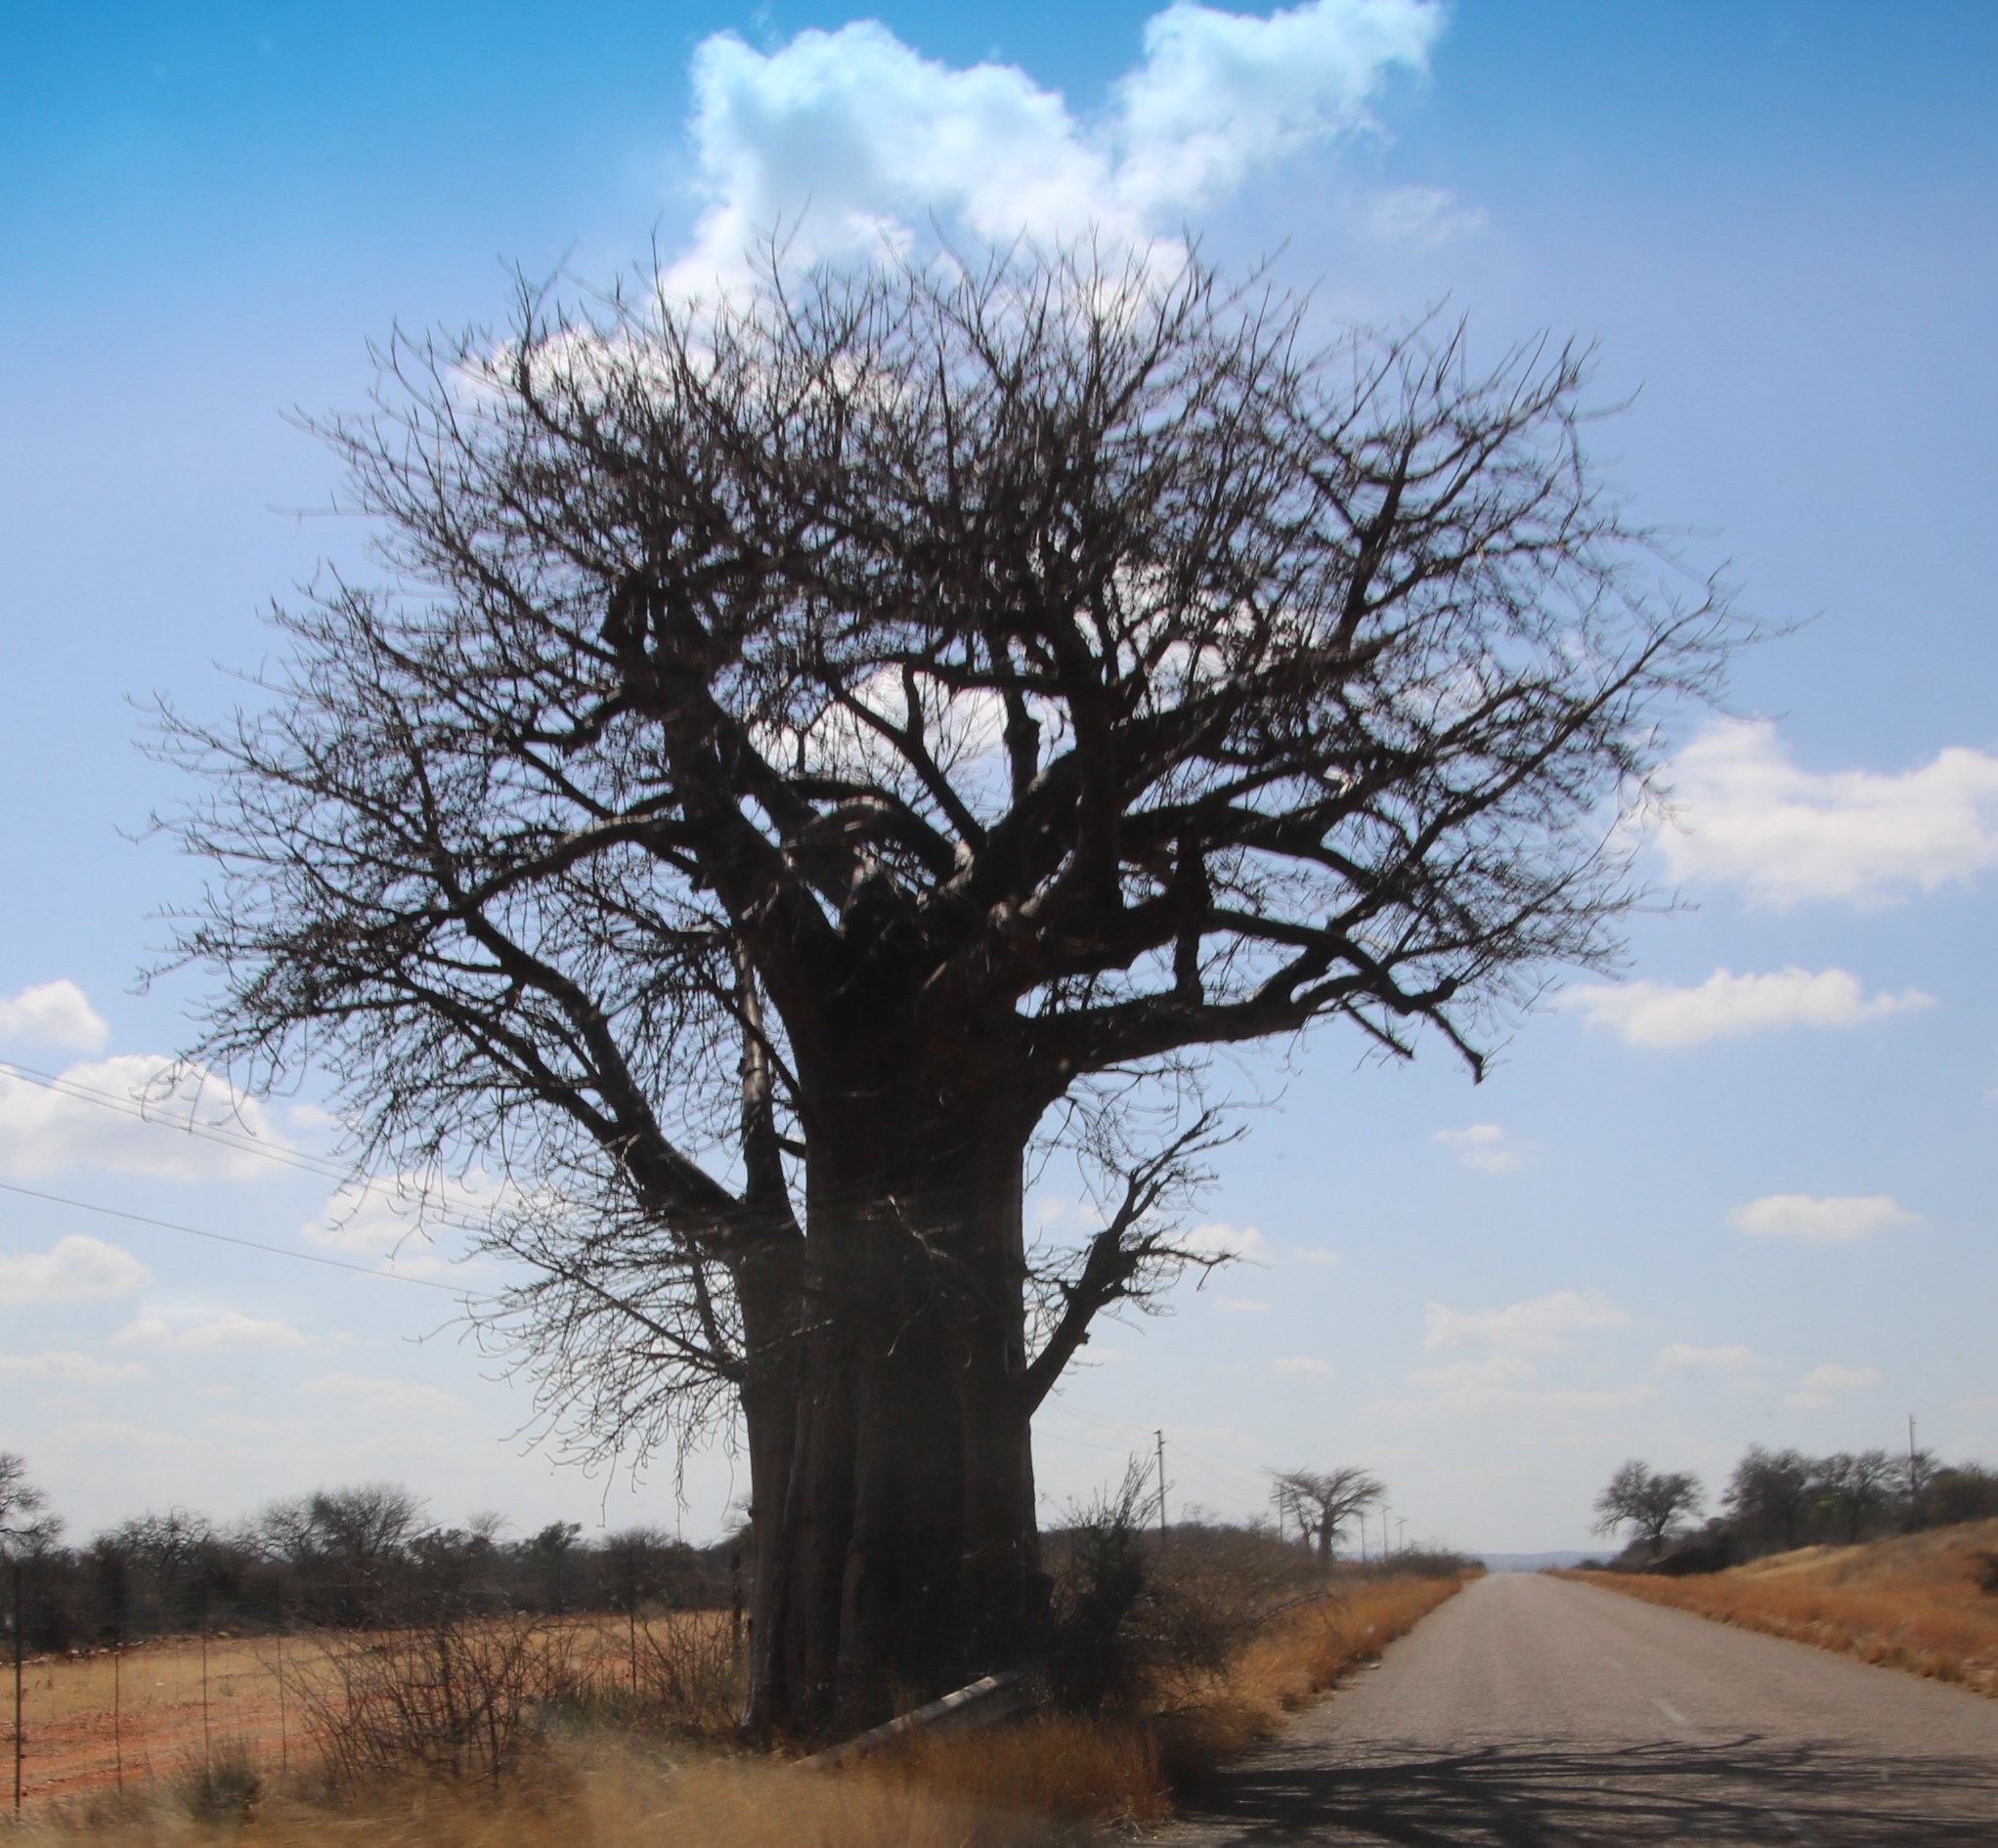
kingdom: Plantae
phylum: Tracheophyta
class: Magnoliopsida
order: Malvales
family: Malvaceae
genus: Adansonia
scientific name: Adansonia digitata
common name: Dead-rat-tree
